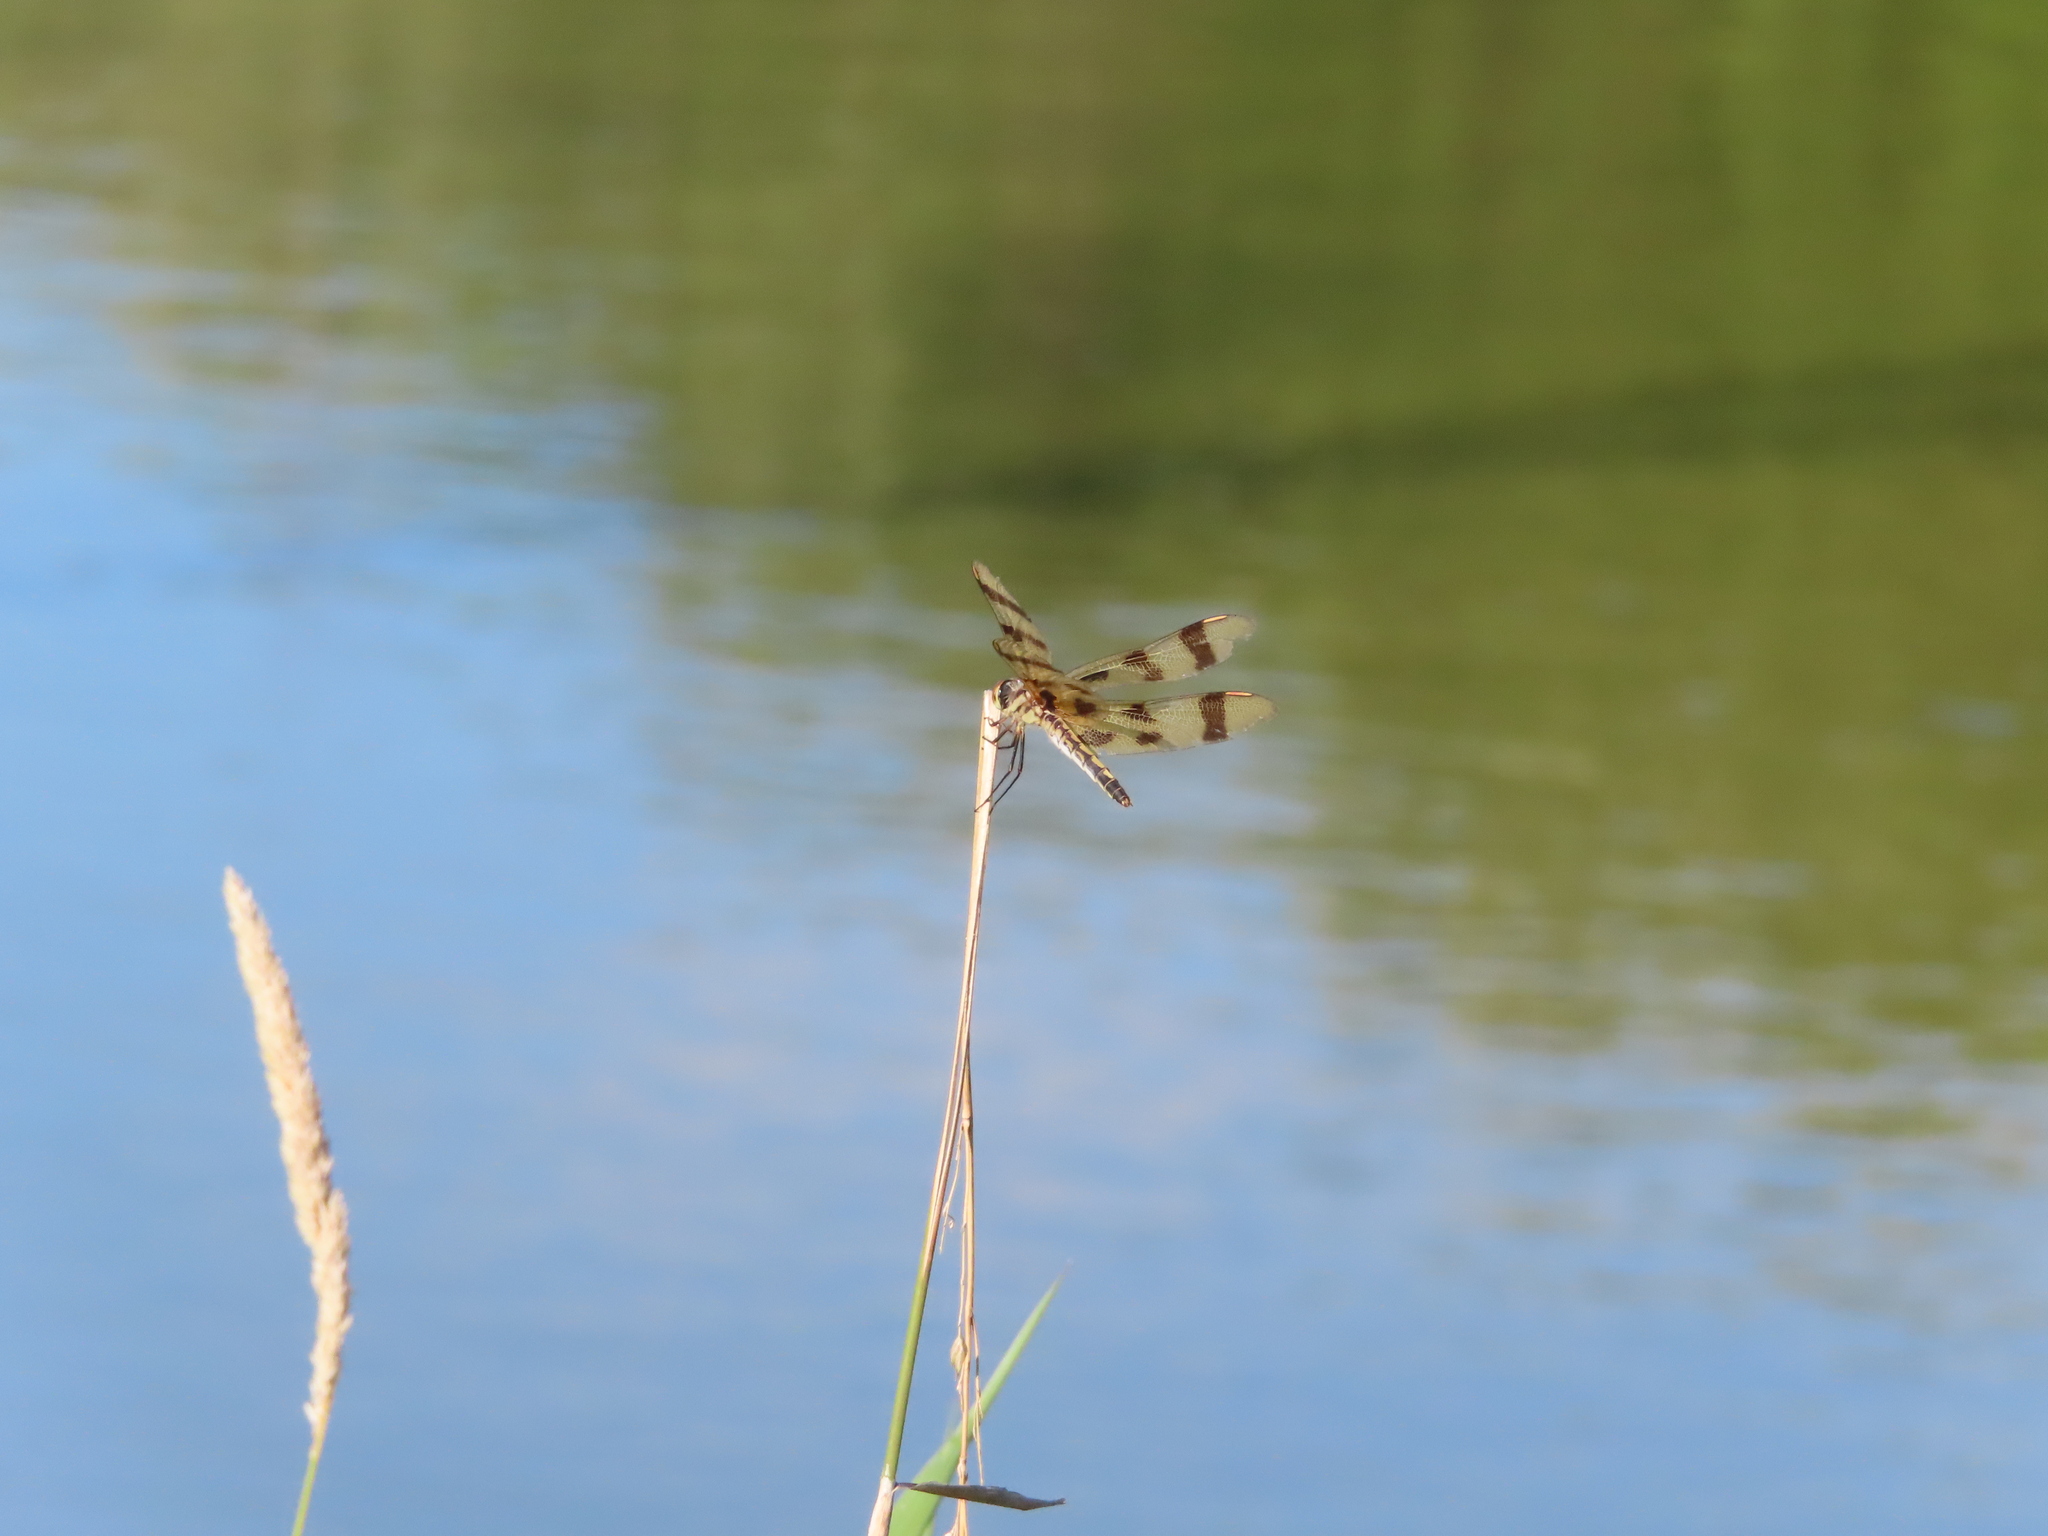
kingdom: Animalia
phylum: Arthropoda
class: Insecta
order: Odonata
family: Libellulidae
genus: Celithemis
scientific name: Celithemis eponina
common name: Halloween pennant
